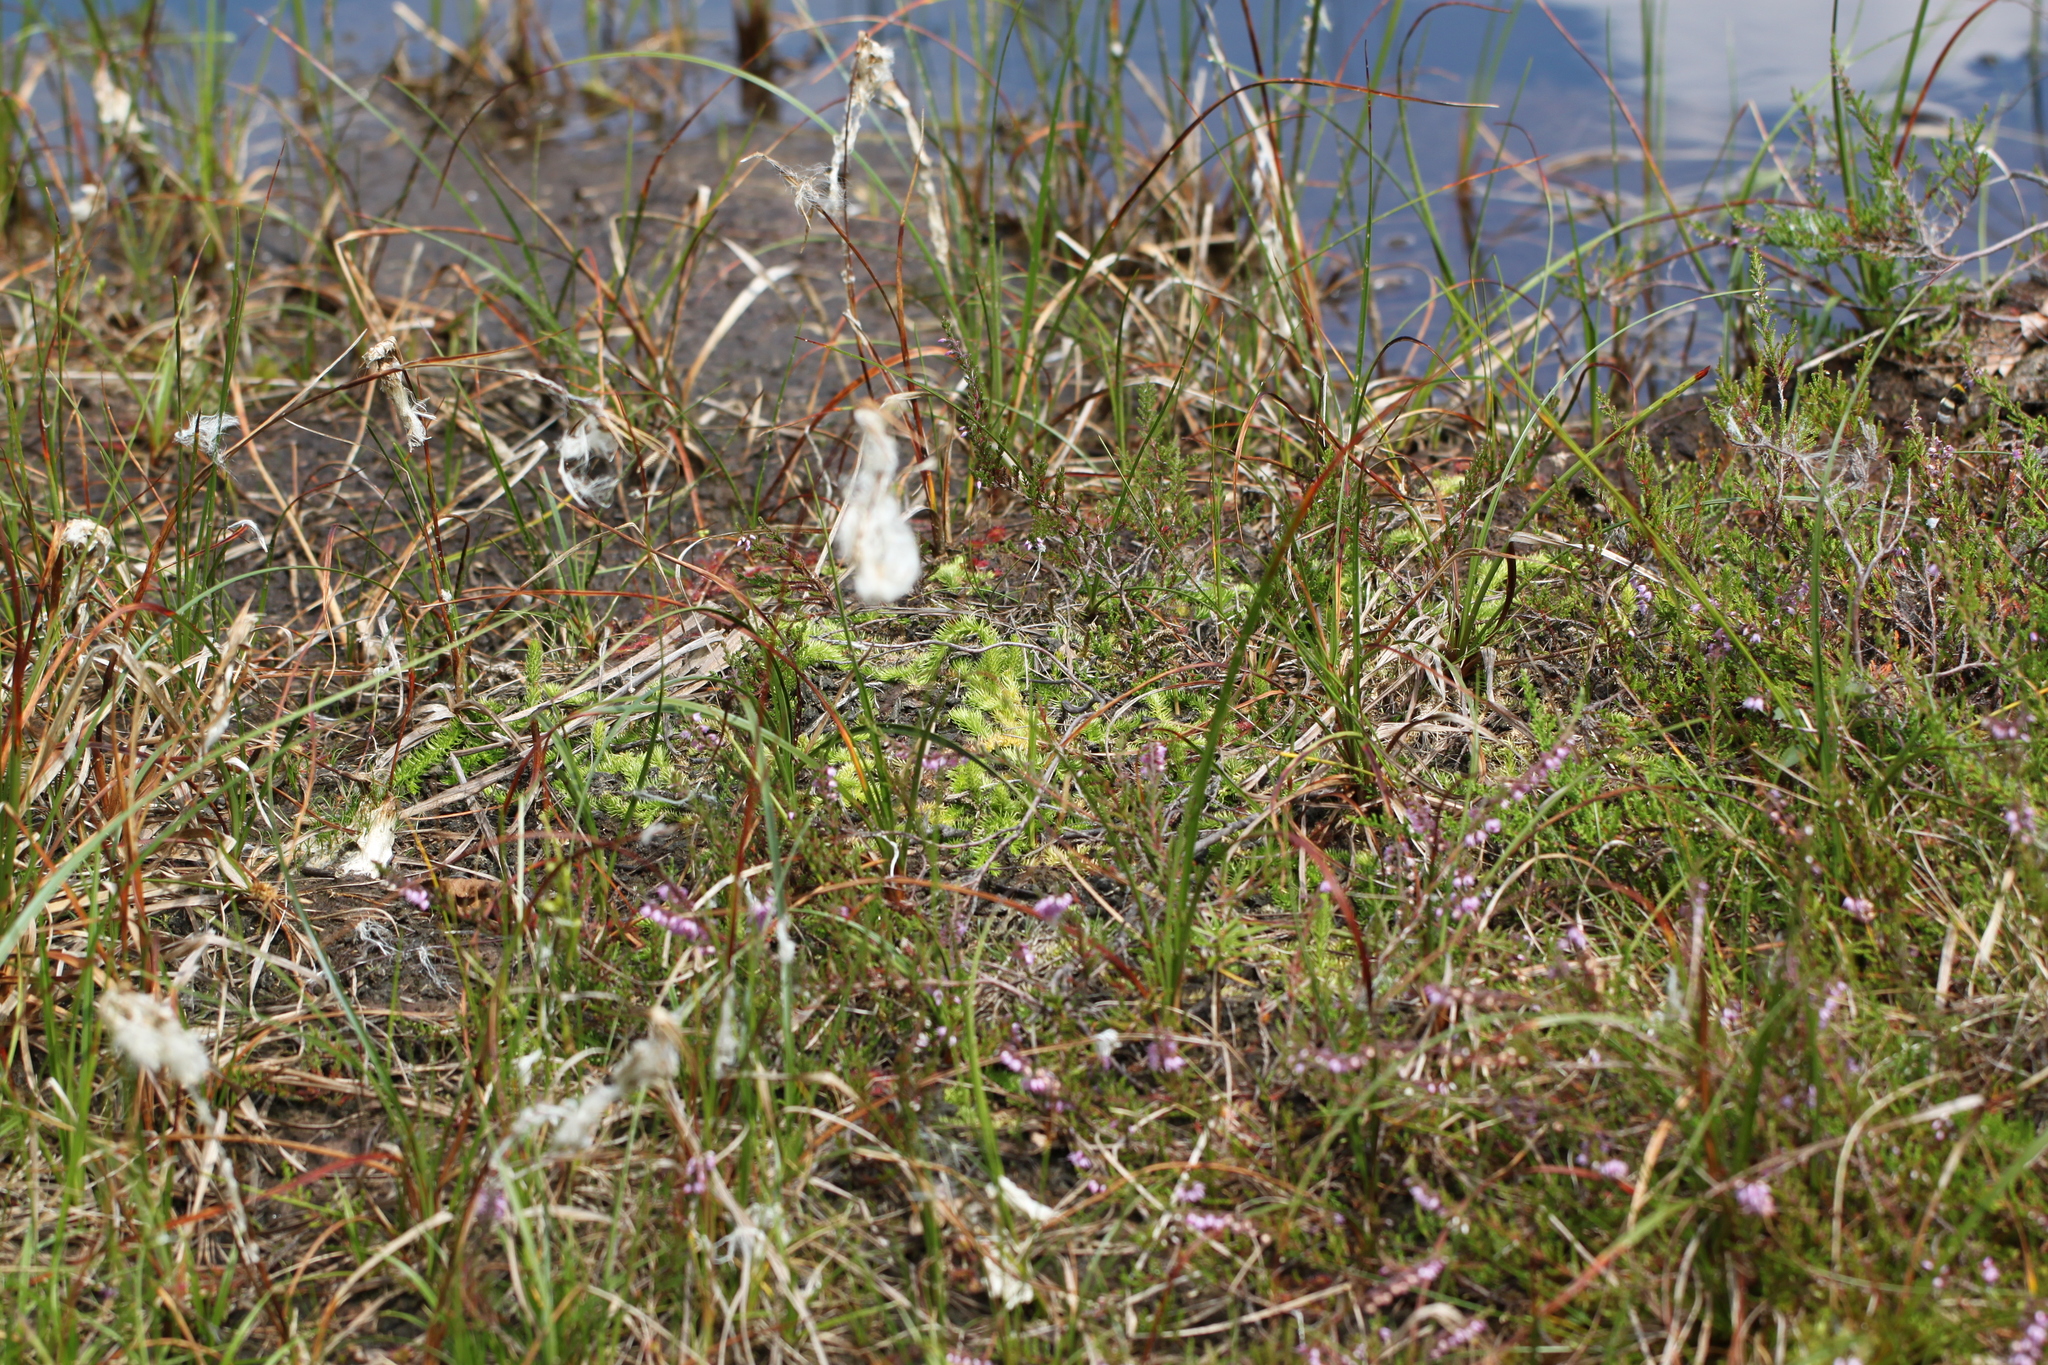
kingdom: Plantae
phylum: Tracheophyta
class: Lycopodiopsida
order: Lycopodiales
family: Lycopodiaceae
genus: Lycopodiella
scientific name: Lycopodiella inundata
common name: Marsh clubmoss
